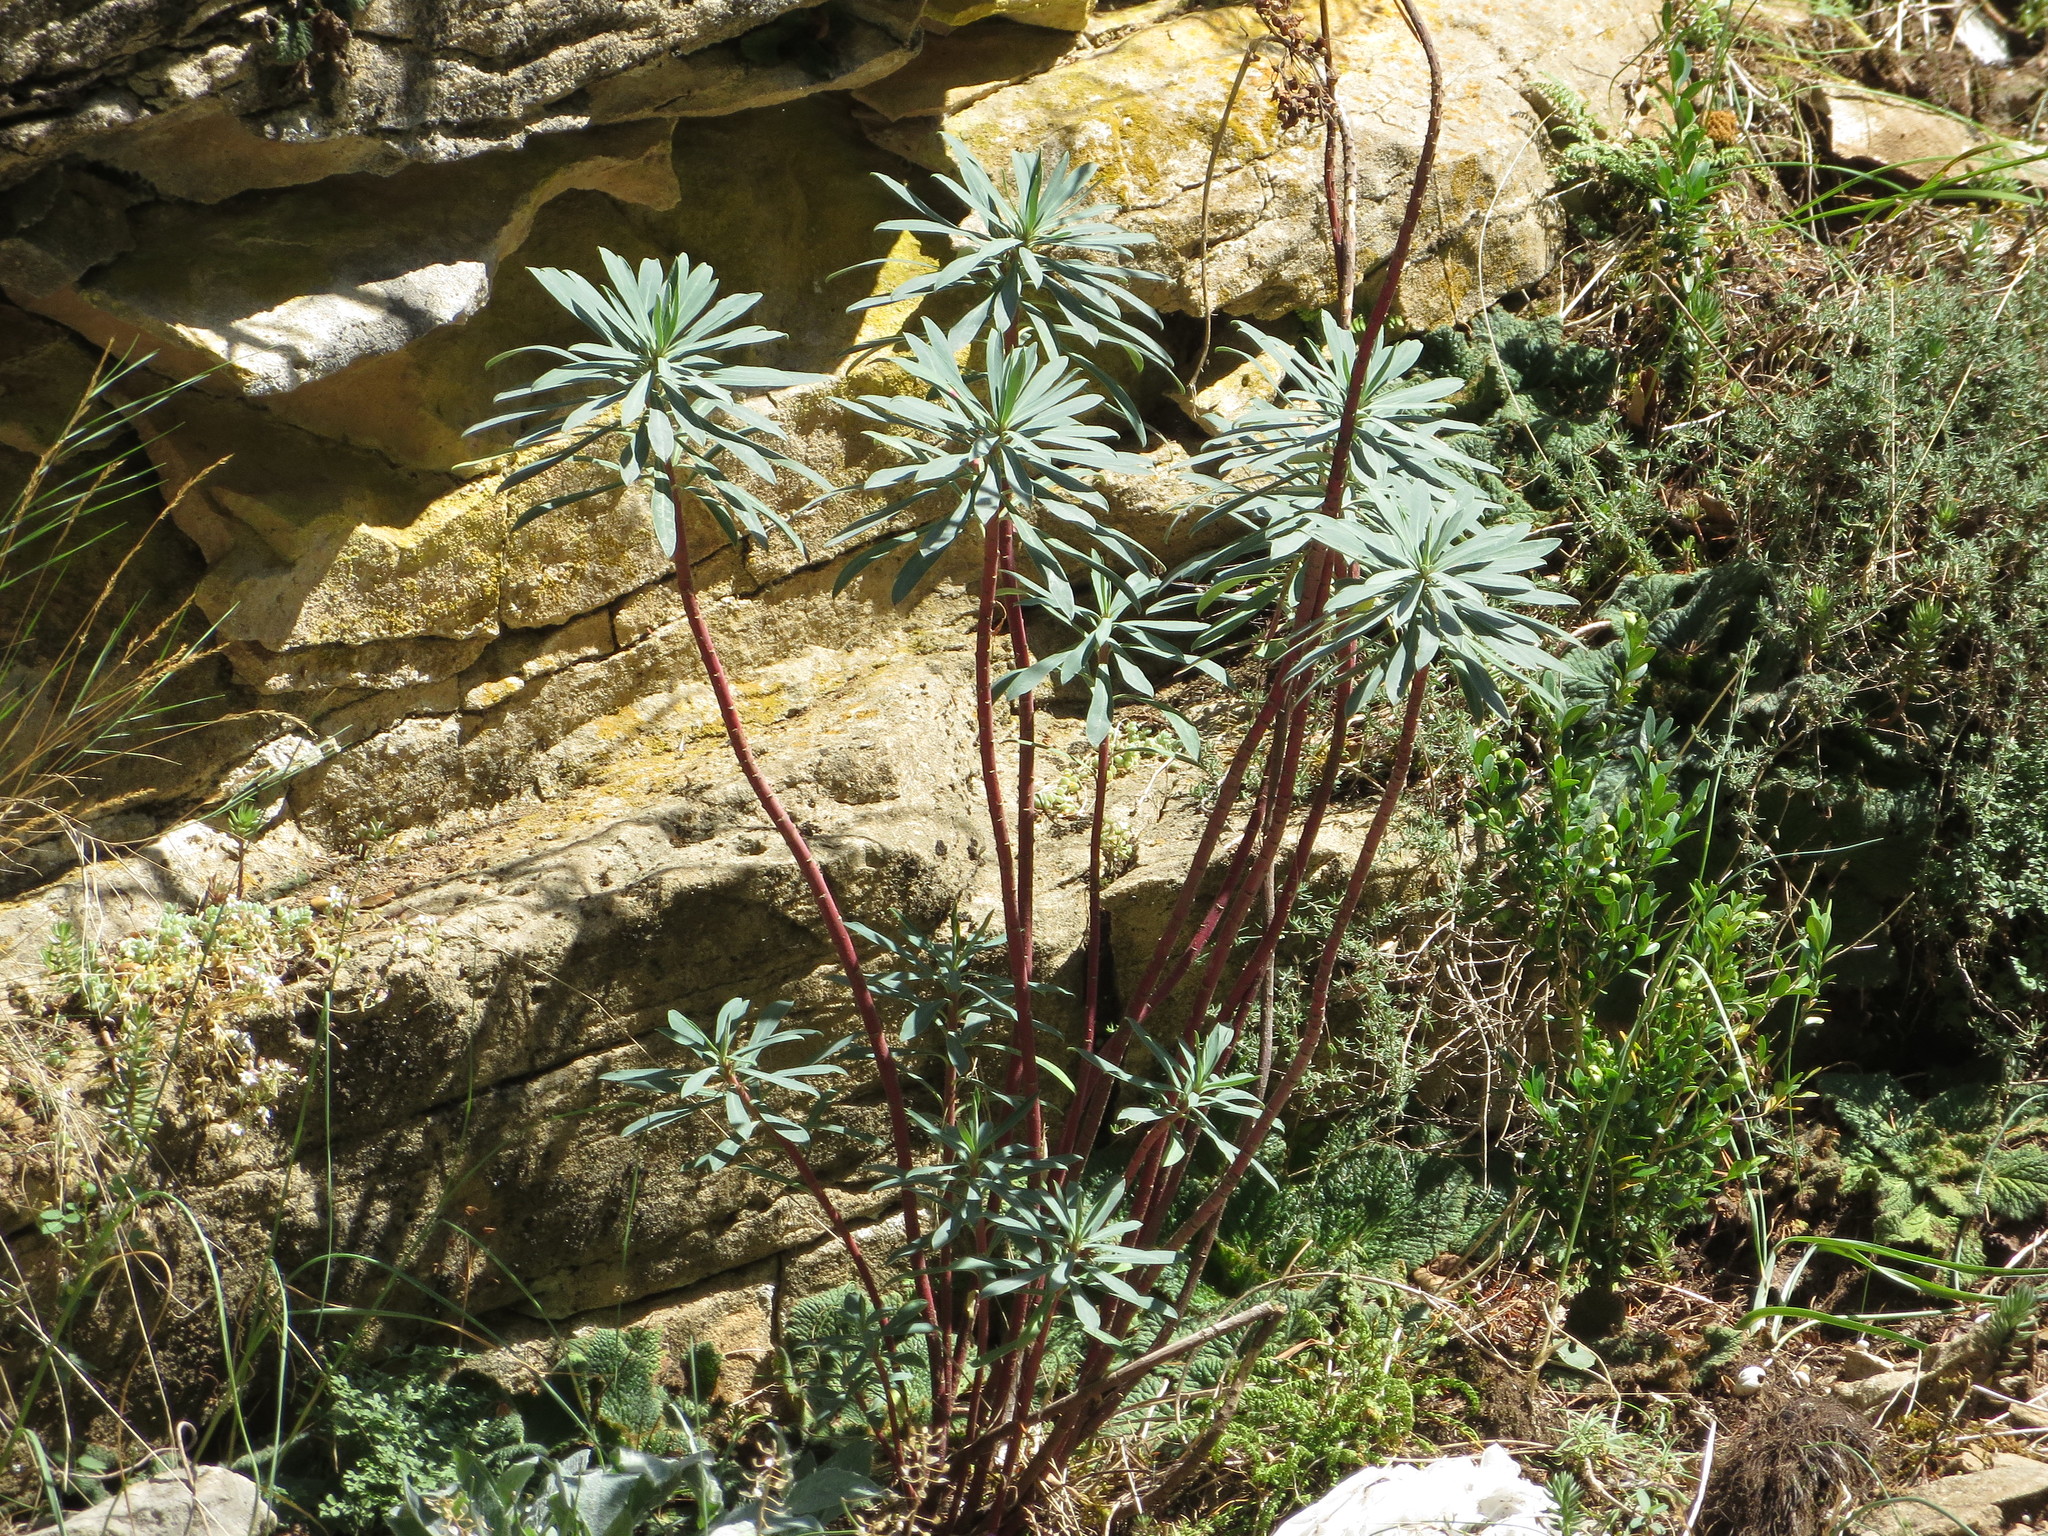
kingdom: Plantae
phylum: Tracheophyta
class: Magnoliopsida
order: Malpighiales
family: Euphorbiaceae
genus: Euphorbia
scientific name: Euphorbia characias
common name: Mediterranean spurge
